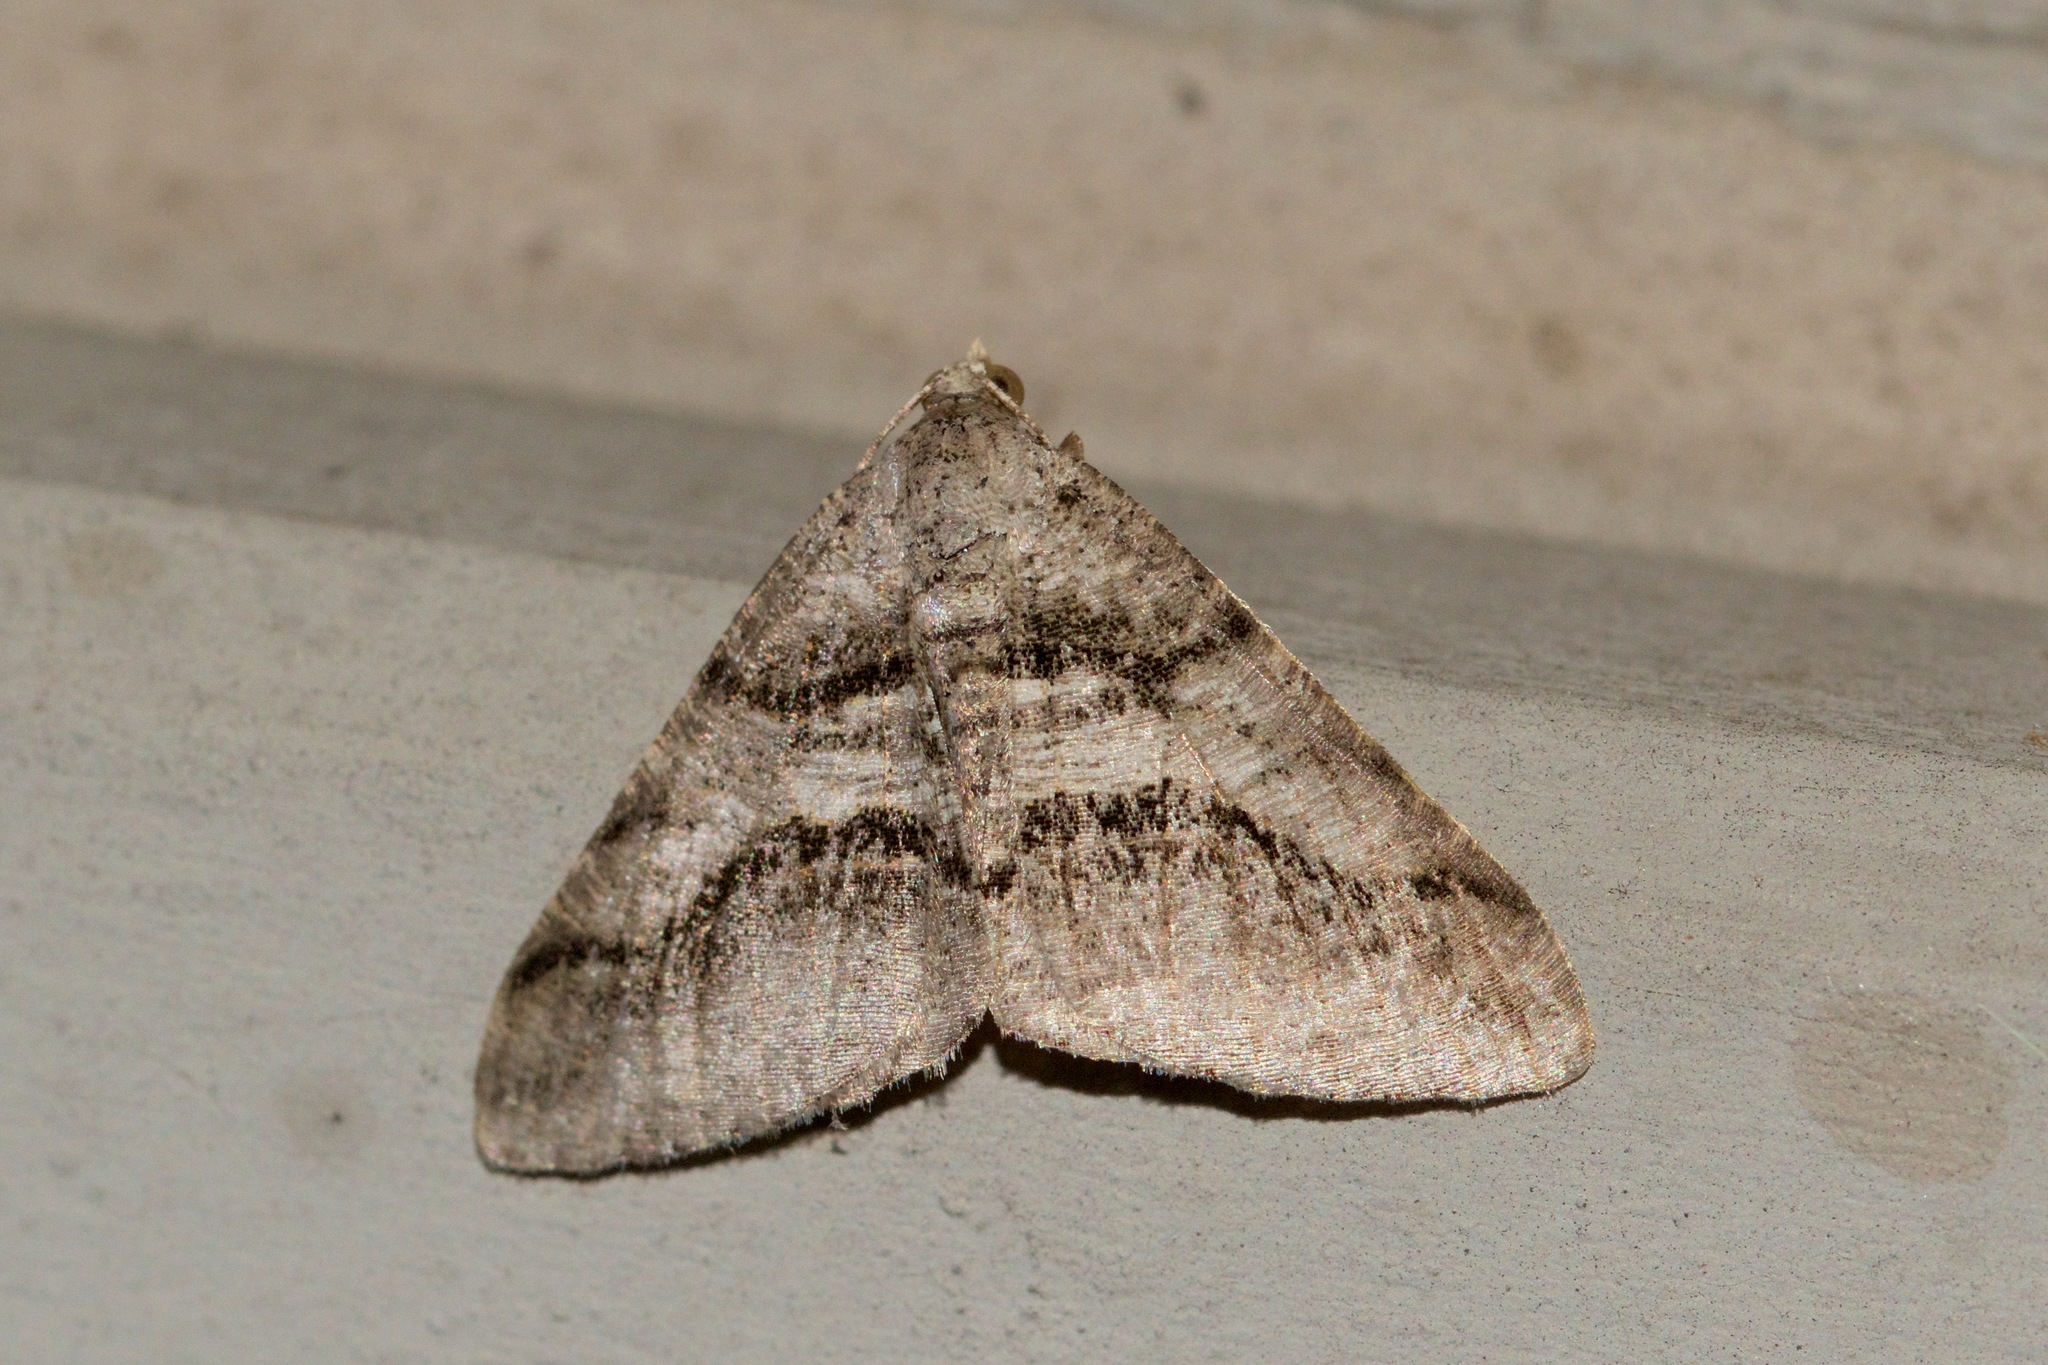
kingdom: Animalia
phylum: Arthropoda
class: Insecta
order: Lepidoptera
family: Geometridae
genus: Digrammia
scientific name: Digrammia continuata
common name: Curve-lined angle
